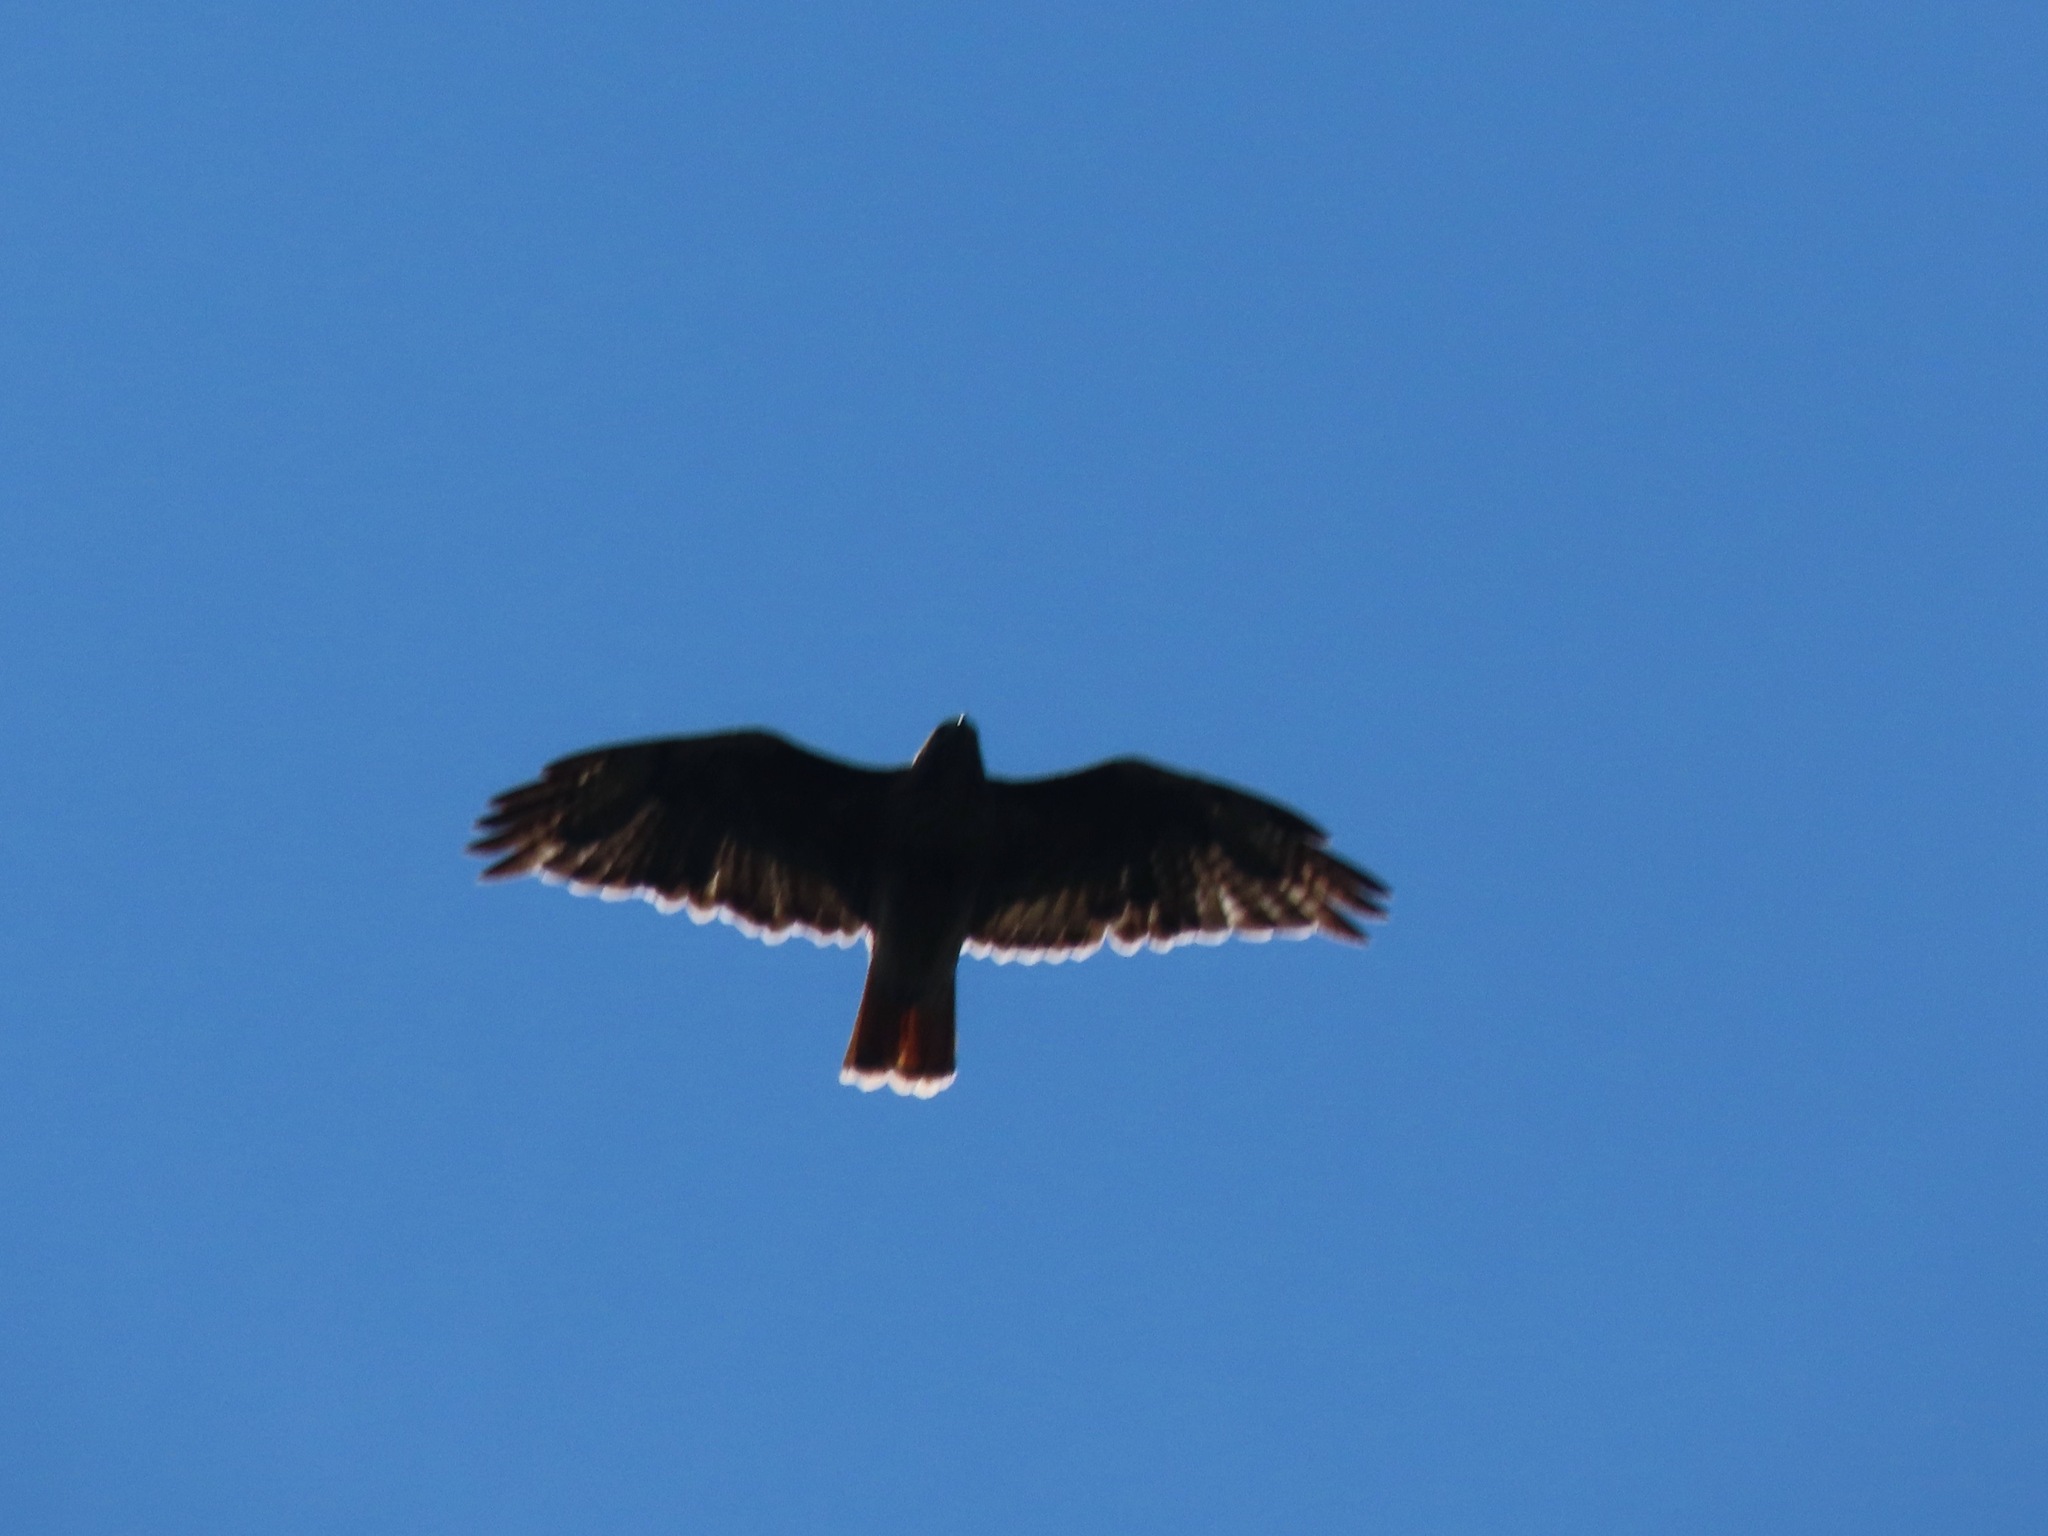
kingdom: Animalia
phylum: Chordata
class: Aves
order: Accipitriformes
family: Accipitridae
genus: Buteo
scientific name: Buteo jamaicensis
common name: Red-tailed hawk
